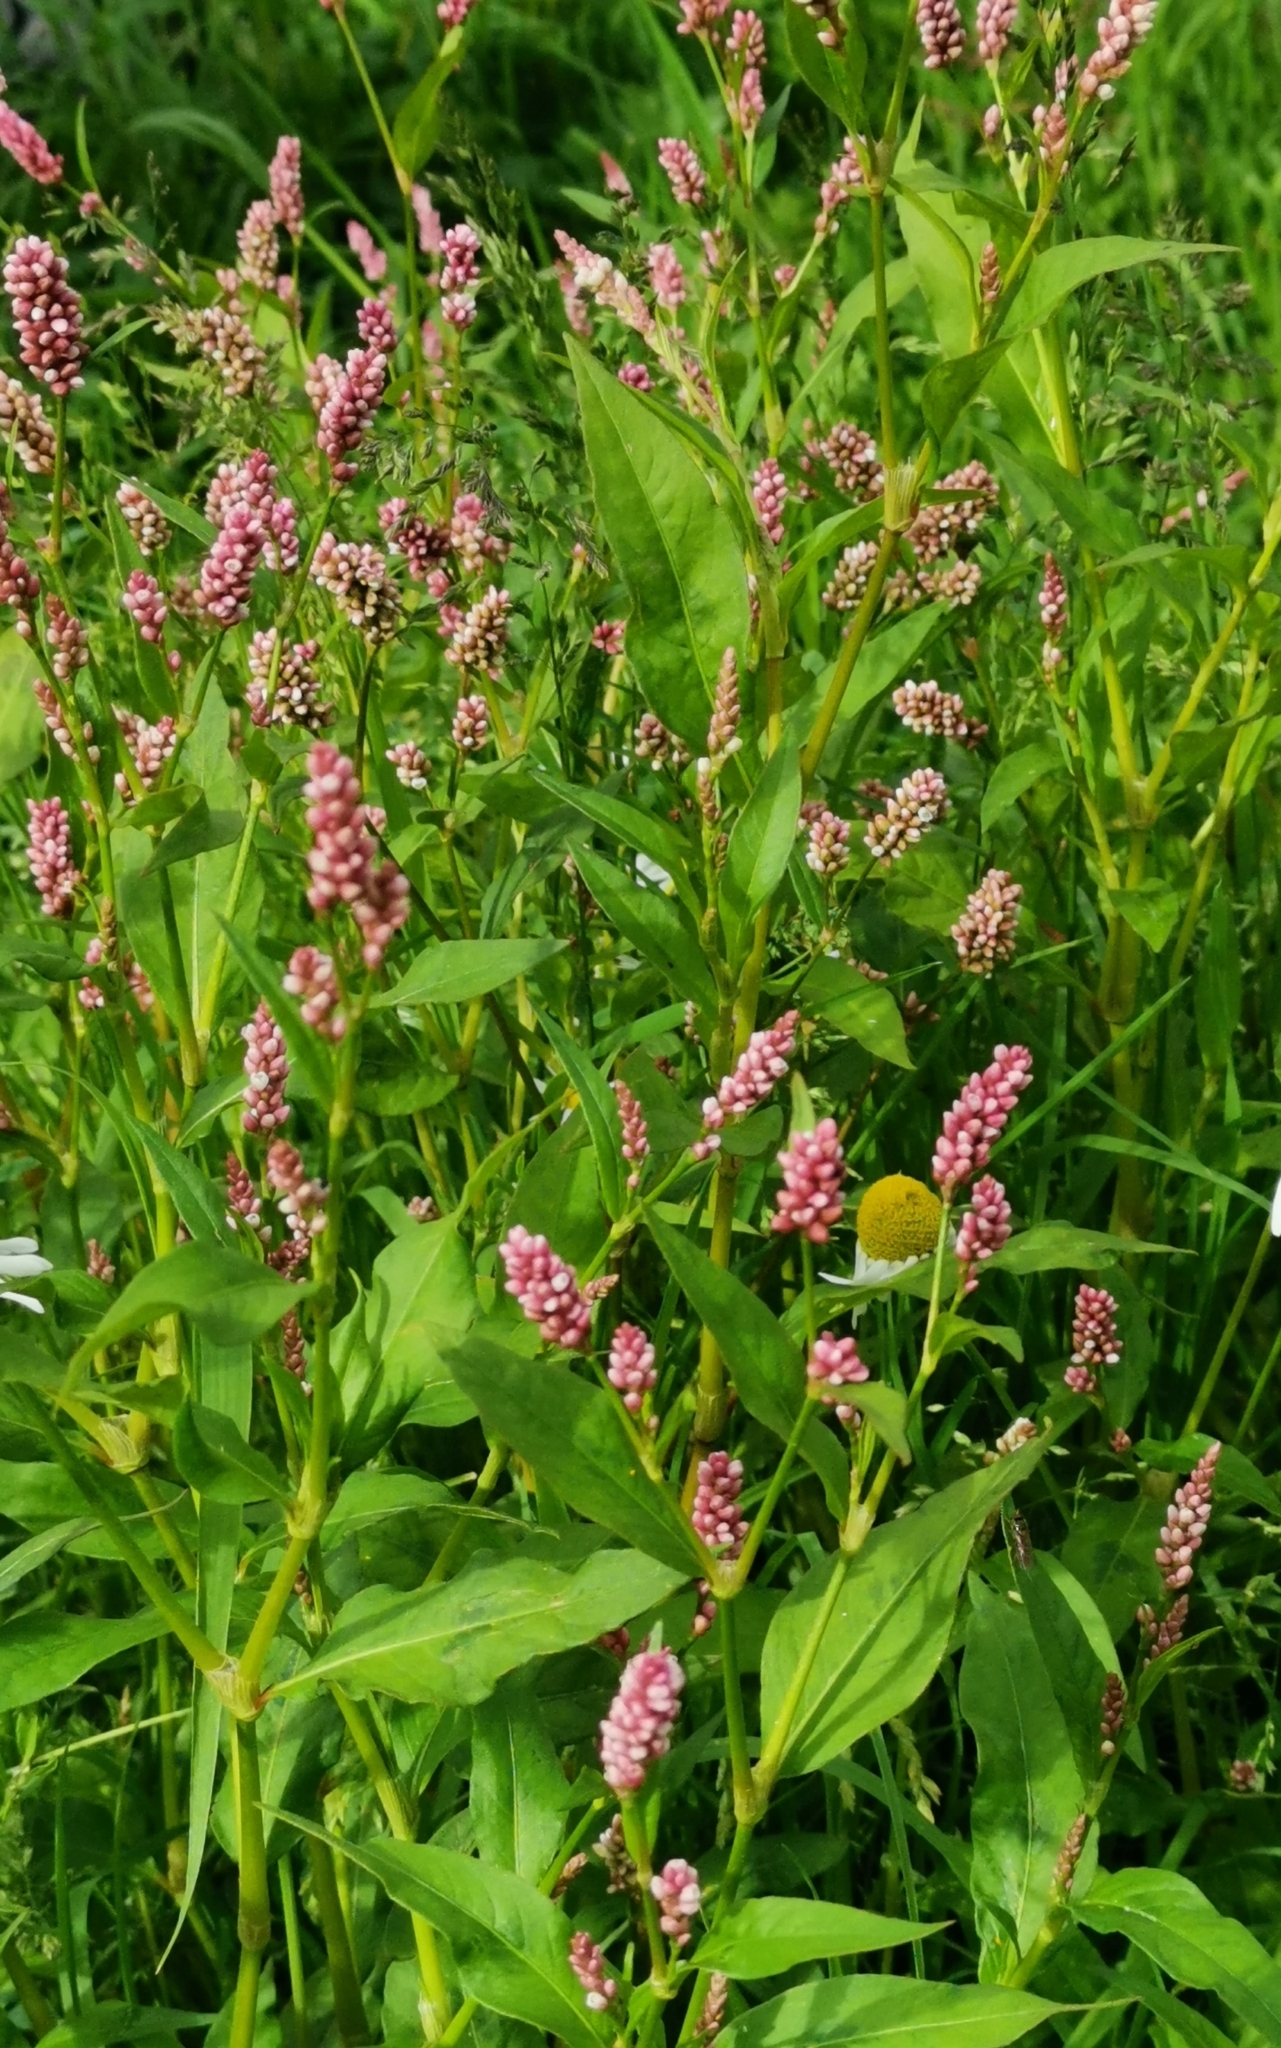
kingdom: Plantae
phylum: Tracheophyta
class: Magnoliopsida
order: Caryophyllales
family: Polygonaceae
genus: Persicaria
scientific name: Persicaria maculosa
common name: Redshank
